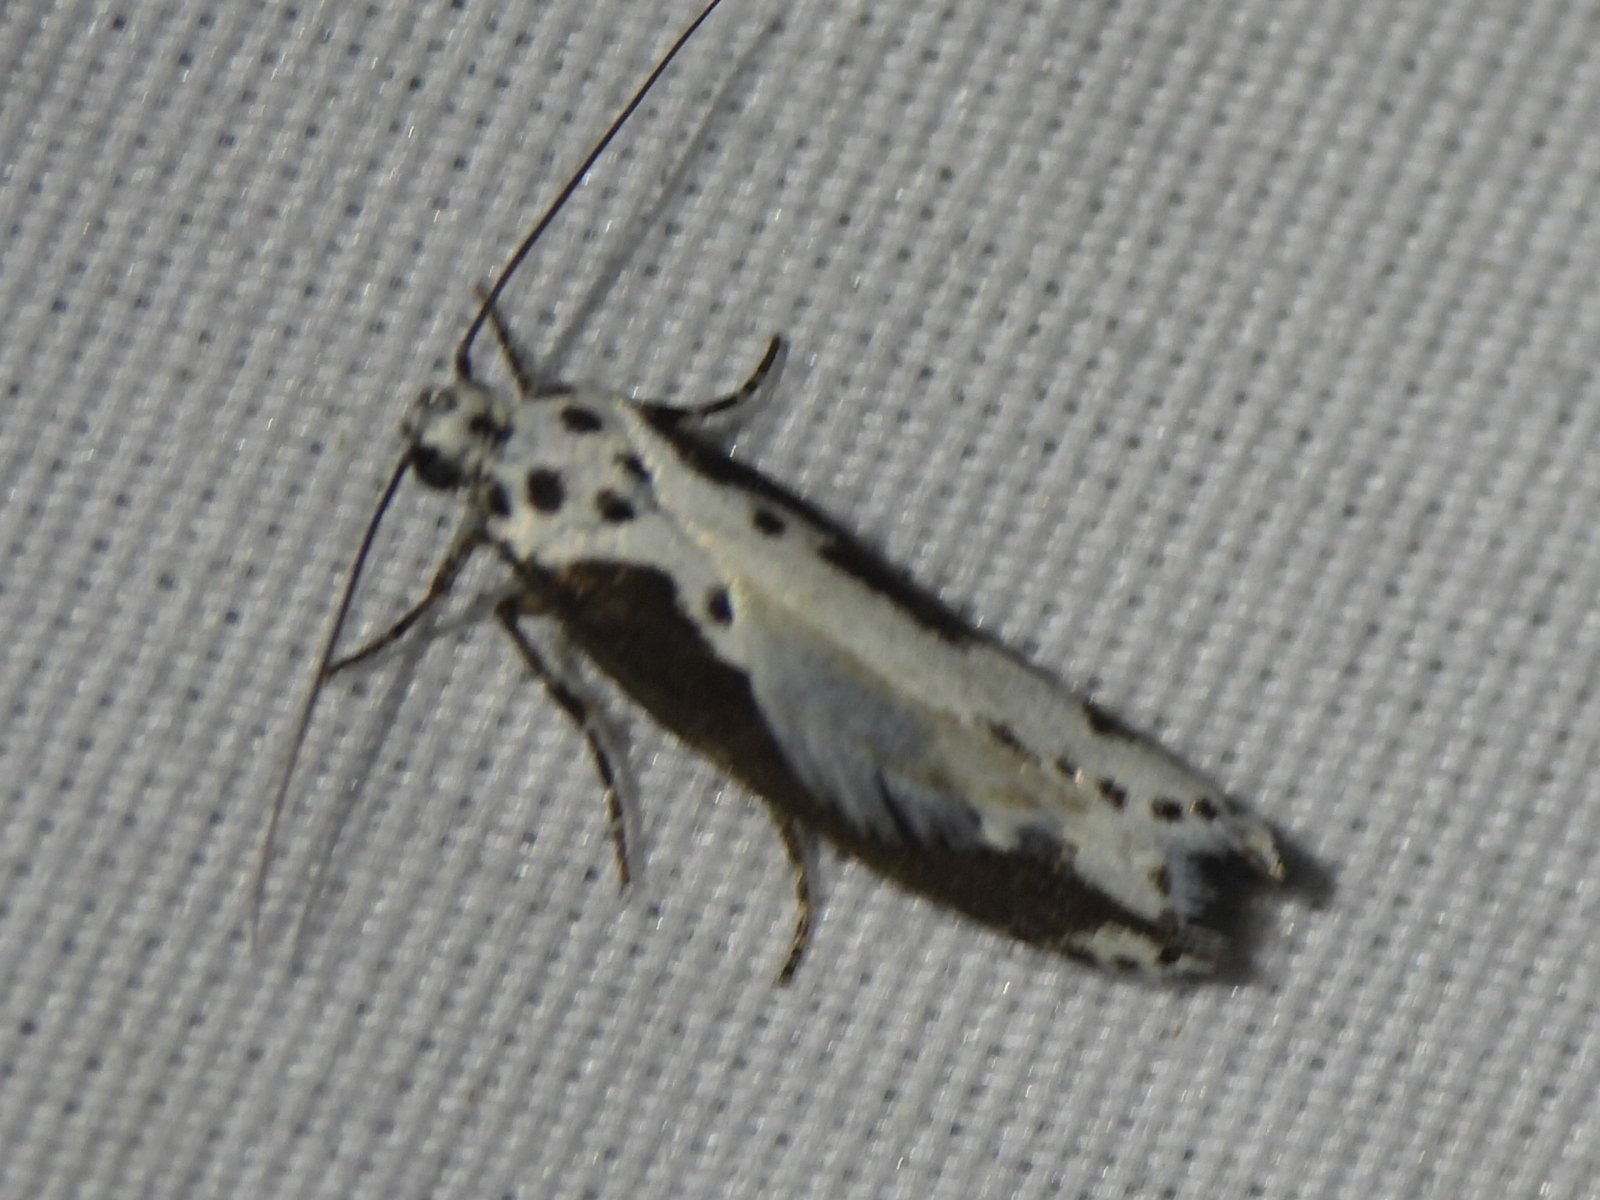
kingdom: Animalia
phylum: Arthropoda
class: Insecta
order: Lepidoptera
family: Ethmiidae
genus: Ethmia
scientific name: Ethmia semilugens
